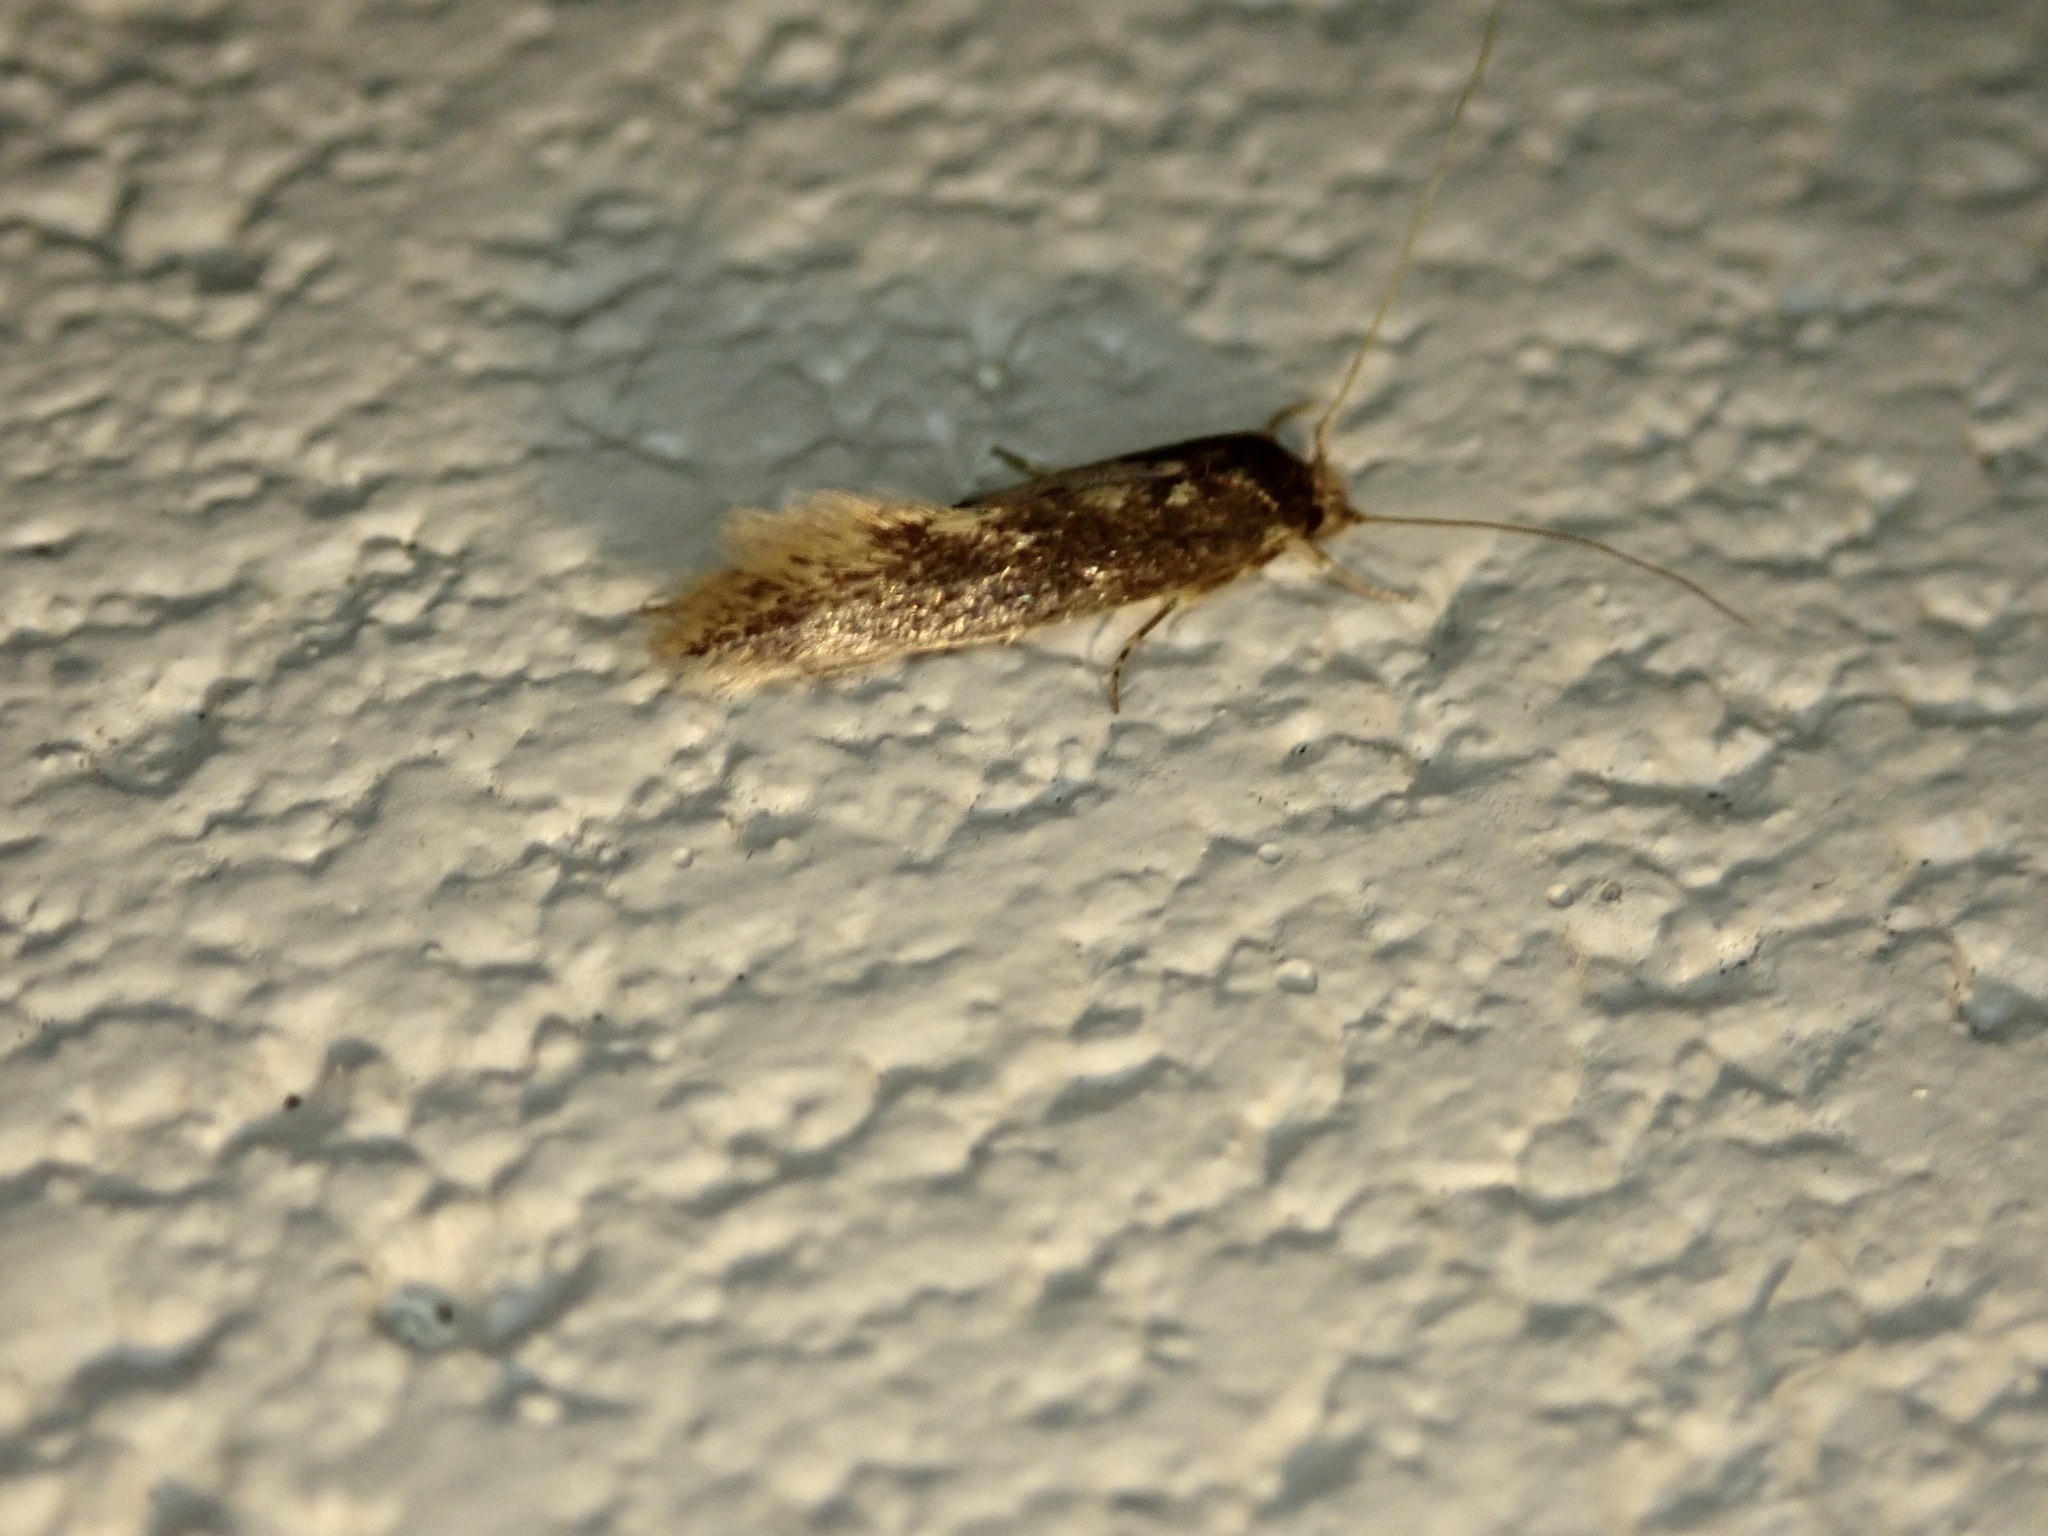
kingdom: Animalia
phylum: Arthropoda
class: Insecta
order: Lepidoptera
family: Tineidae
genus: Opogona
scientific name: Opogona omoscopa
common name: Moth
